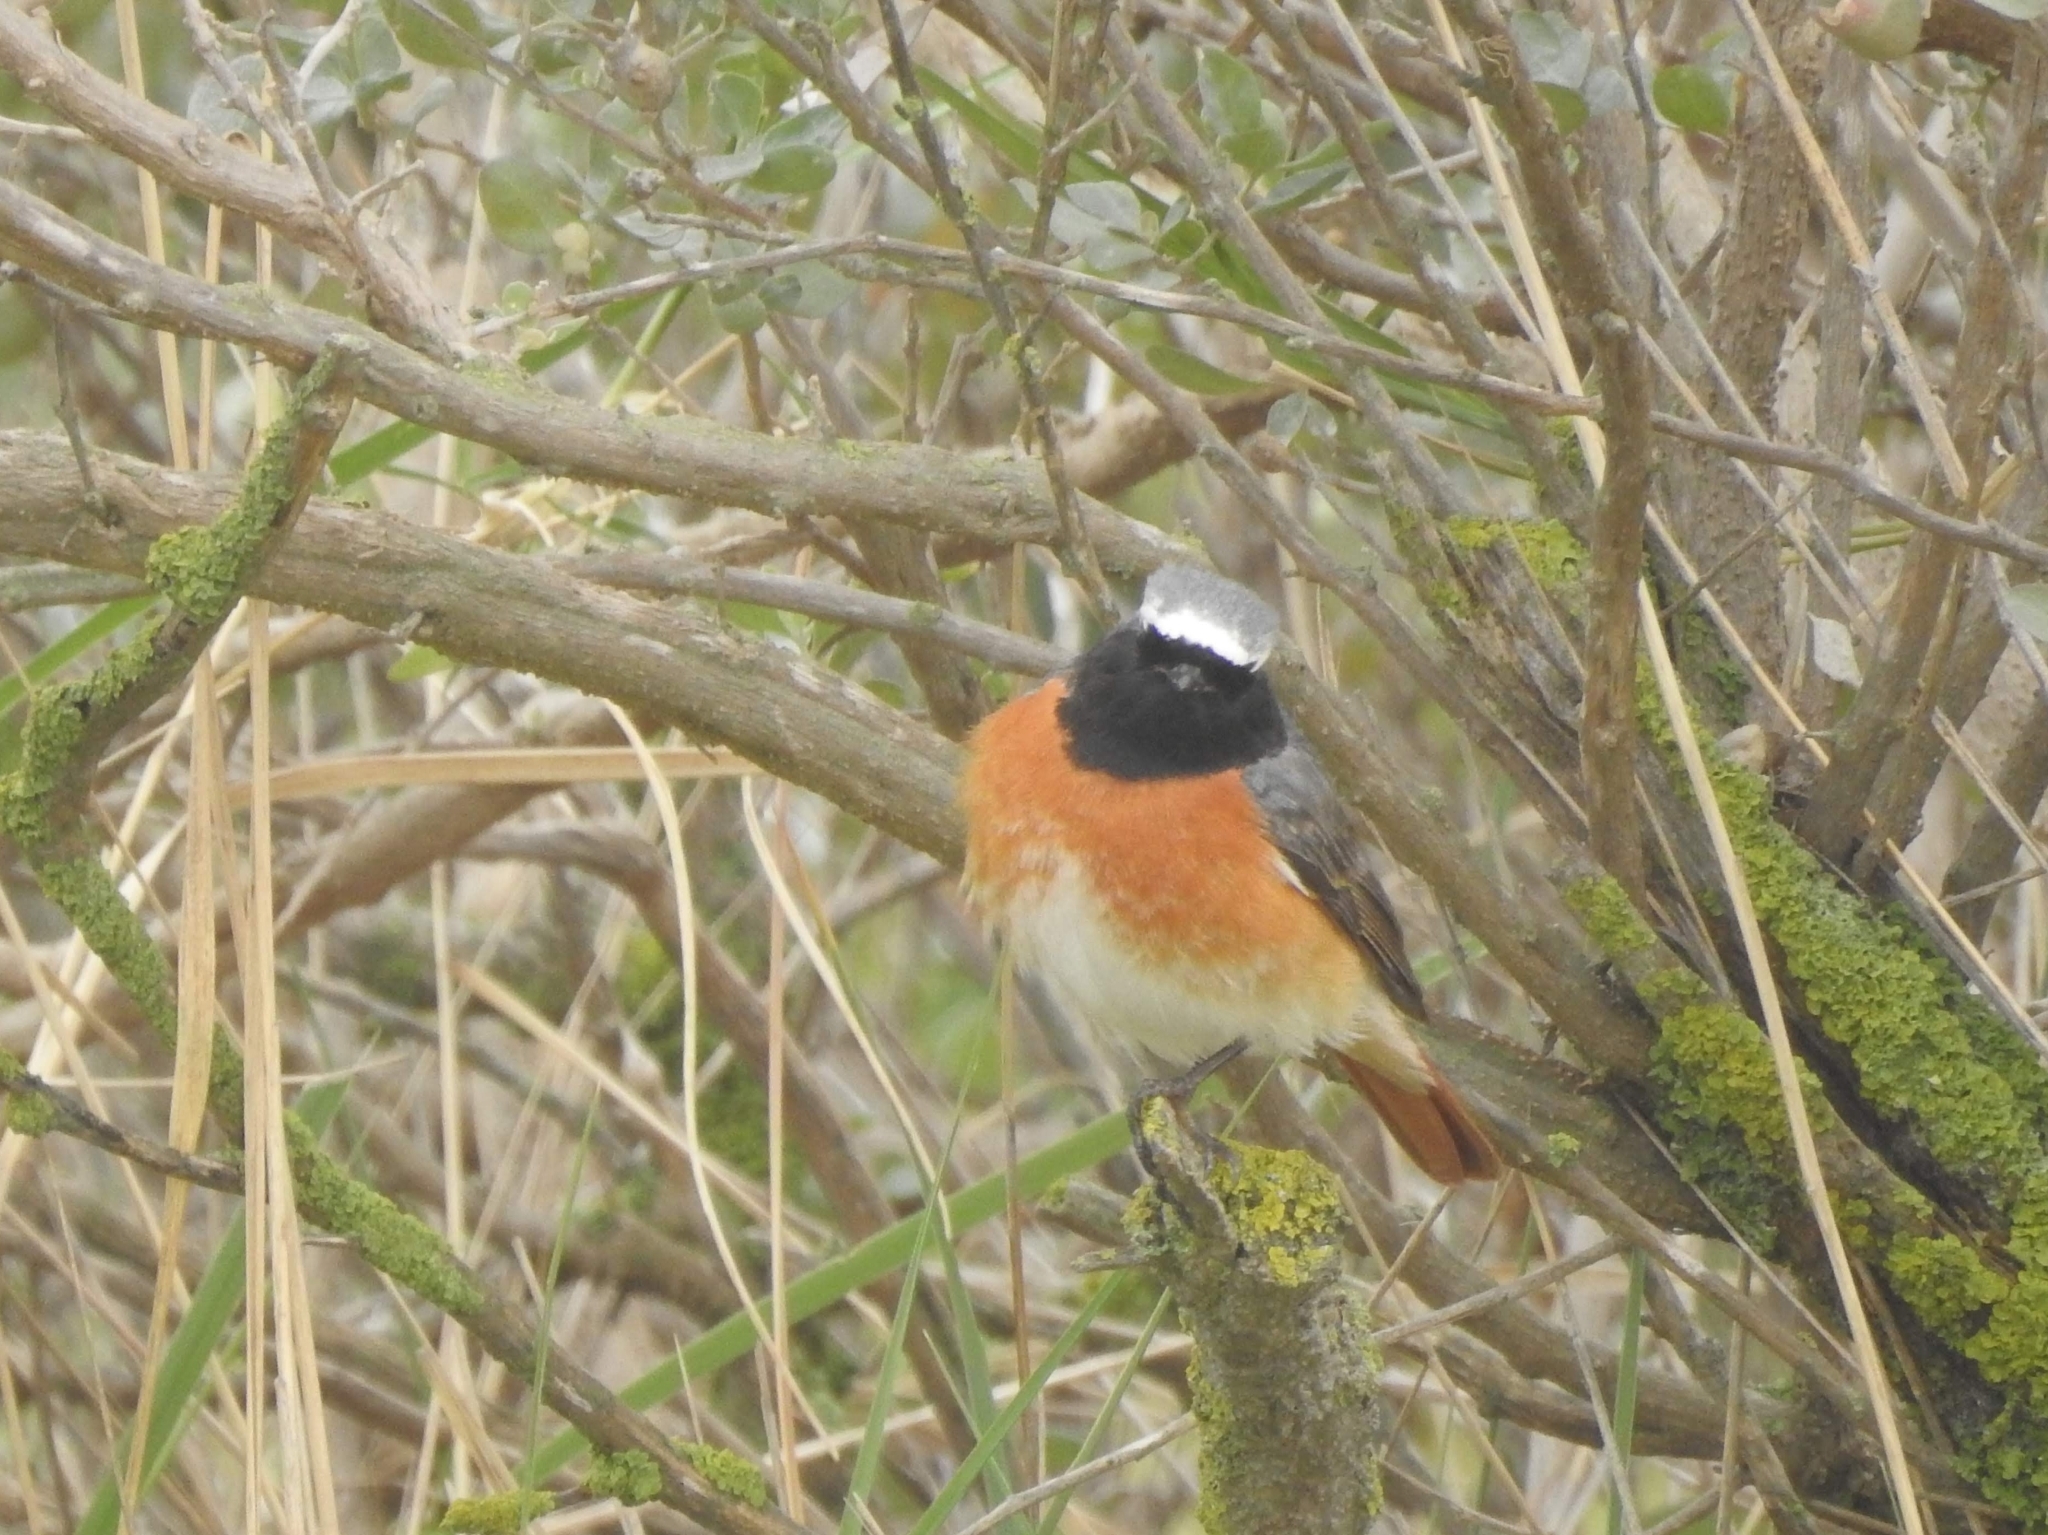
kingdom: Animalia
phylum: Chordata
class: Aves
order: Passeriformes
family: Muscicapidae
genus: Phoenicurus
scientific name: Phoenicurus phoenicurus
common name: Common redstart
